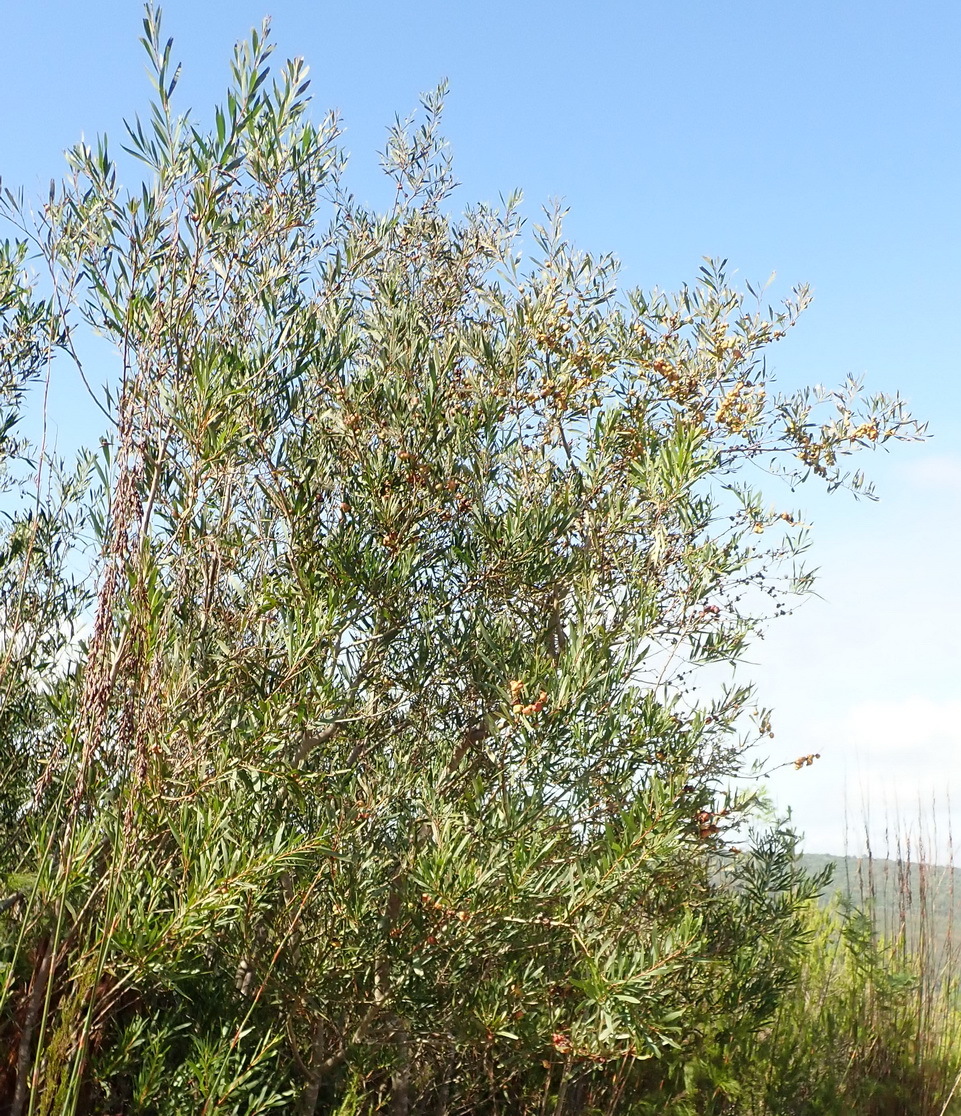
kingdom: Animalia
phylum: Arthropoda
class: Insecta
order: Hymenoptera
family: Pteromalidae
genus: Trichilogaster
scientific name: Trichilogaster acaciaelongifoliae
